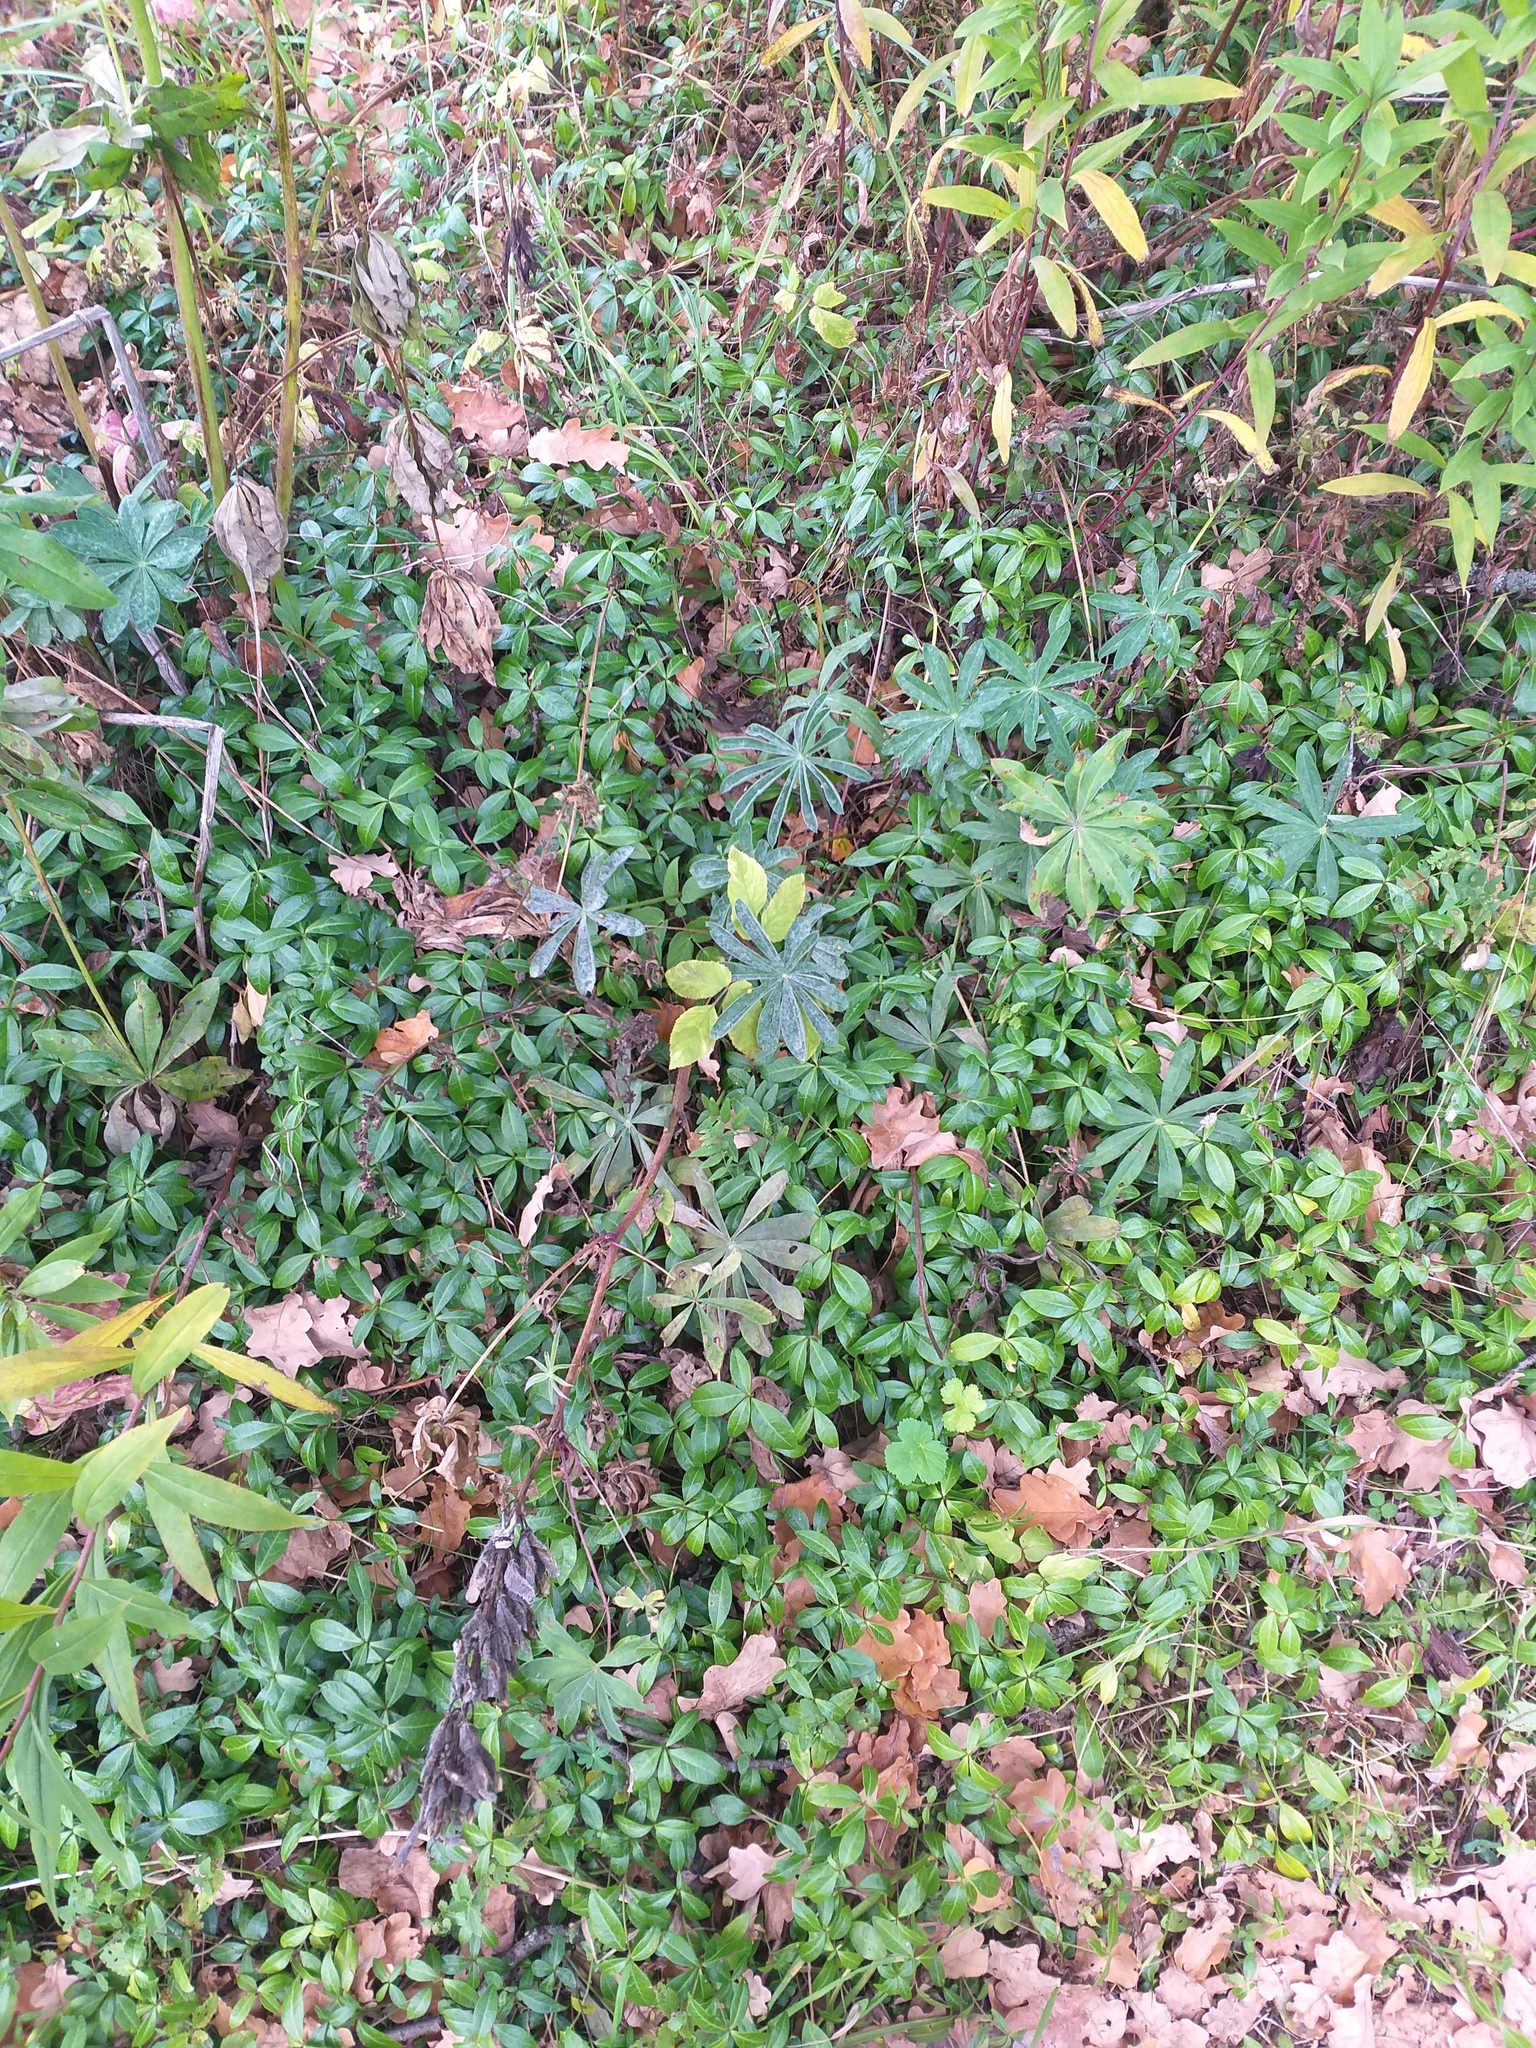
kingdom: Plantae
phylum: Tracheophyta
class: Magnoliopsida
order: Gentianales
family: Apocynaceae
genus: Vinca
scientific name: Vinca minor
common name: Lesser periwinkle
